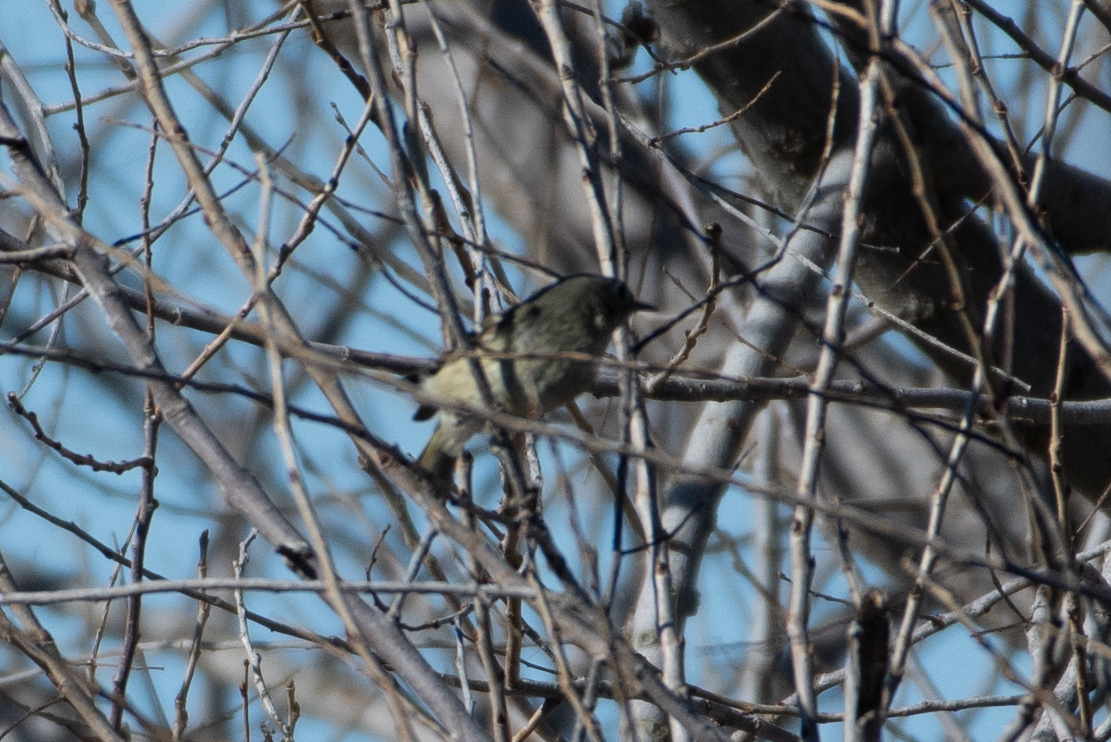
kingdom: Animalia
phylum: Chordata
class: Aves
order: Passeriformes
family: Regulidae
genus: Regulus
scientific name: Regulus calendula
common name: Ruby-crowned kinglet
